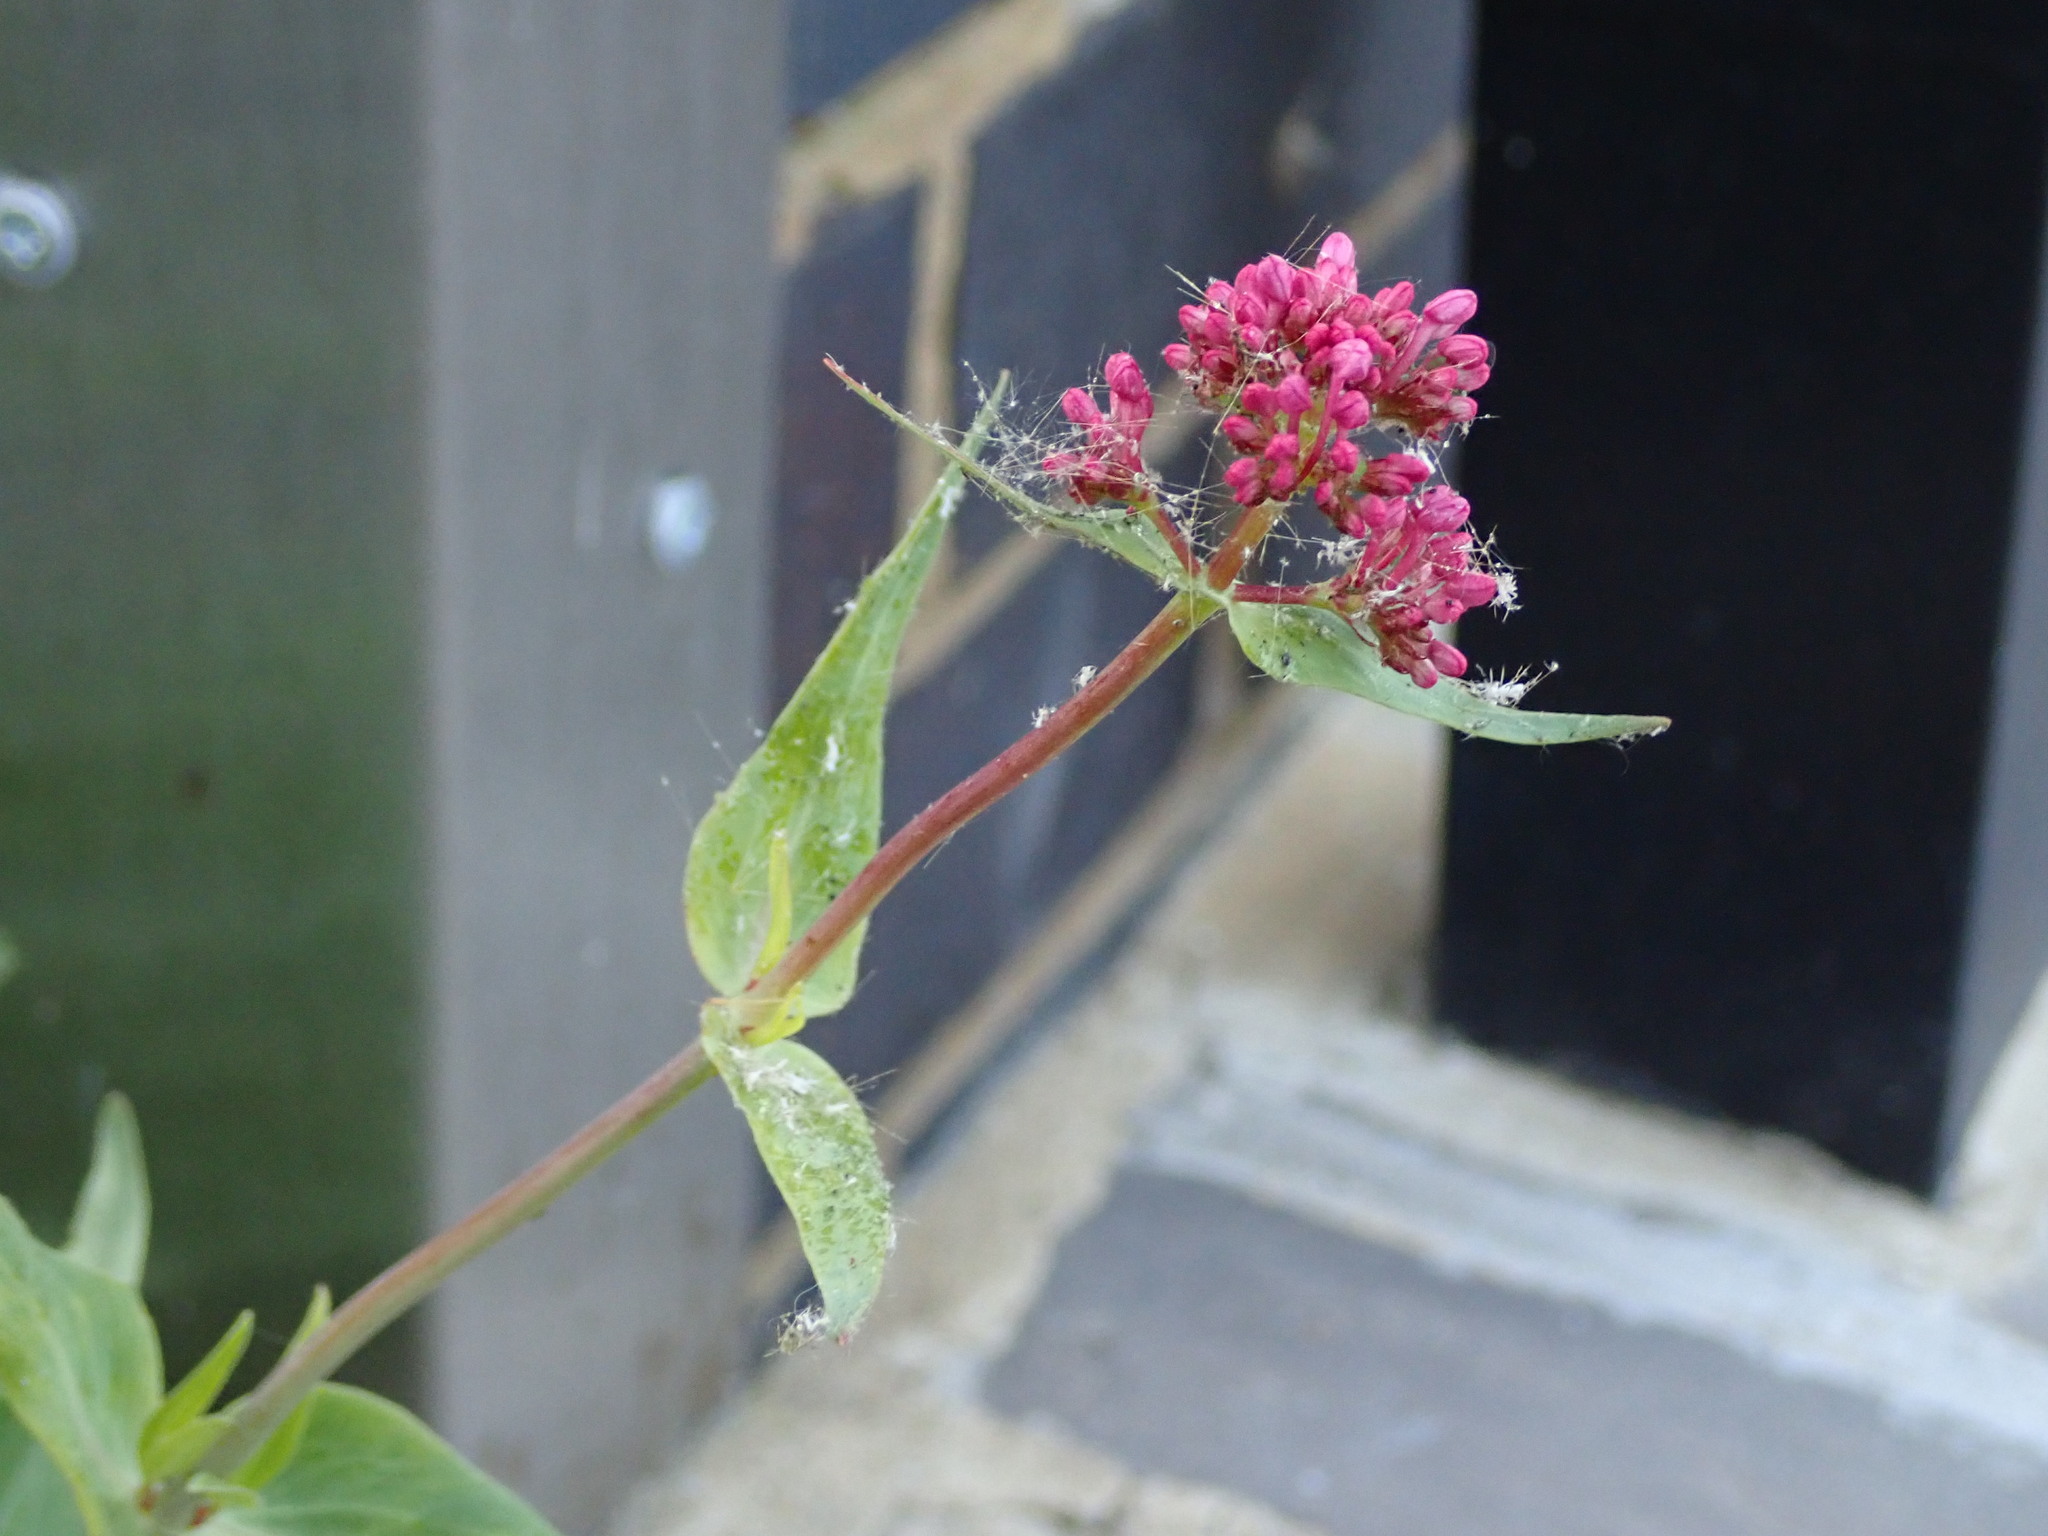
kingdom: Plantae
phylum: Tracheophyta
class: Magnoliopsida
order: Dipsacales
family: Caprifoliaceae
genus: Centranthus
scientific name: Centranthus ruber
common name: Red valerian
